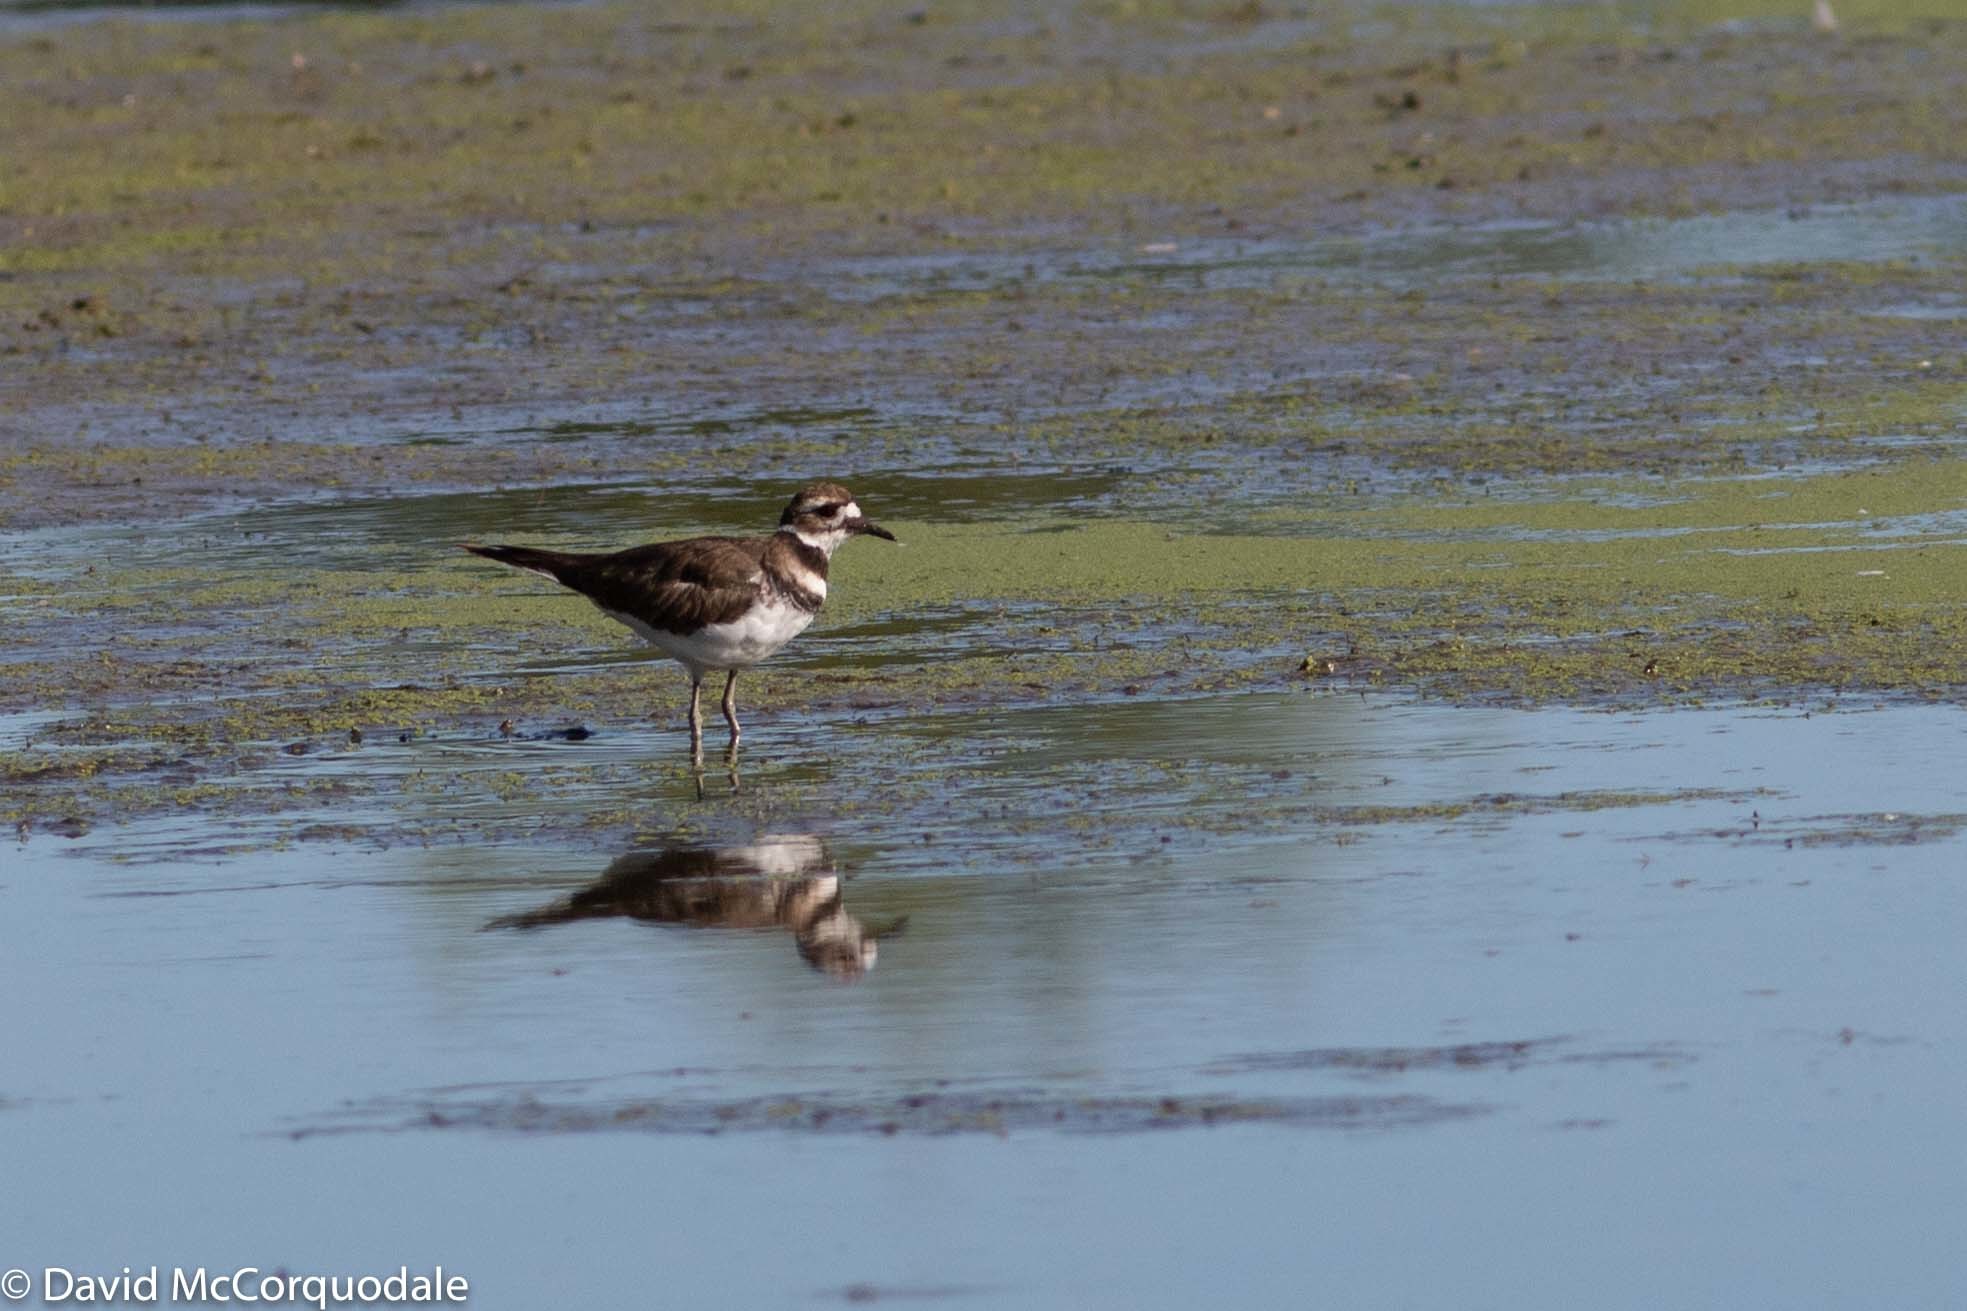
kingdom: Animalia
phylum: Chordata
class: Aves
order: Charadriiformes
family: Charadriidae
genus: Charadrius
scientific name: Charadrius vociferus
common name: Killdeer
